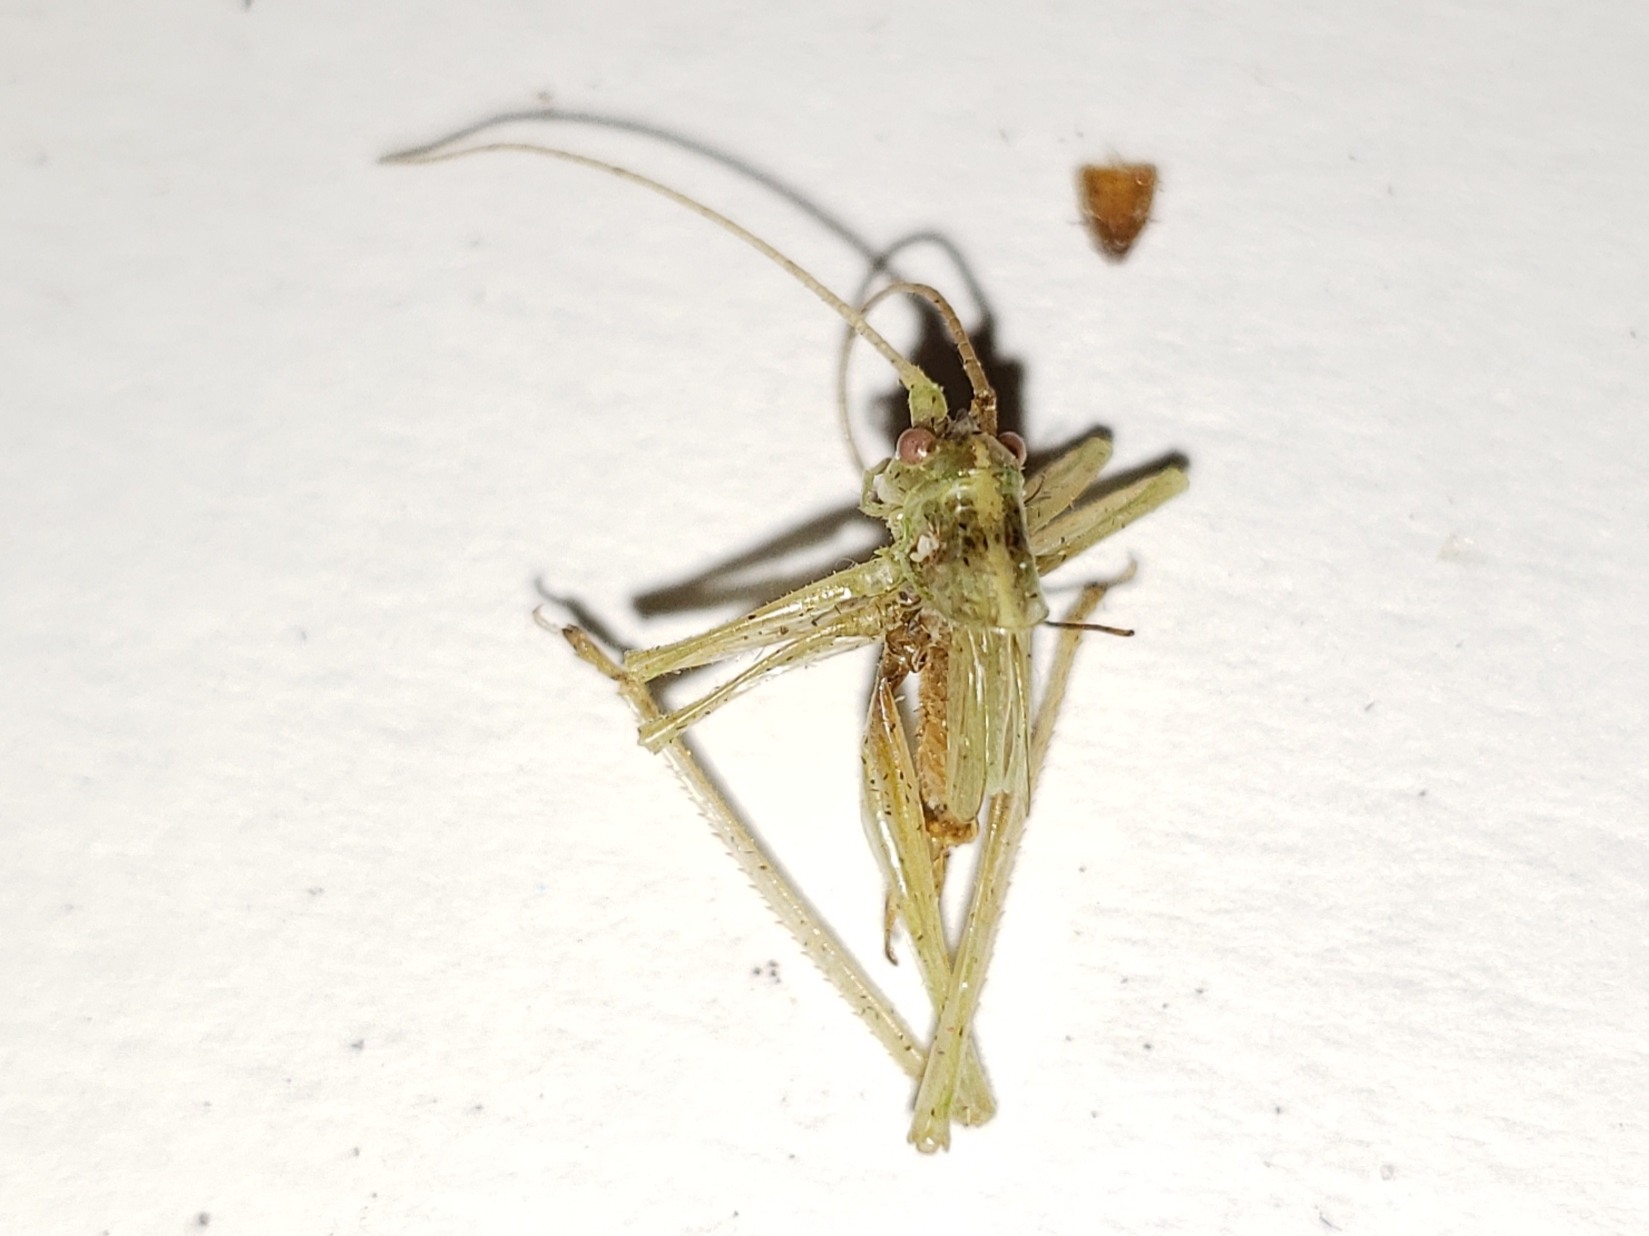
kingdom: Animalia
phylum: Arthropoda
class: Insecta
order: Orthoptera
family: Tettigoniidae
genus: Meconema
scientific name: Meconema thalassinum
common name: Oak bush-cricket
